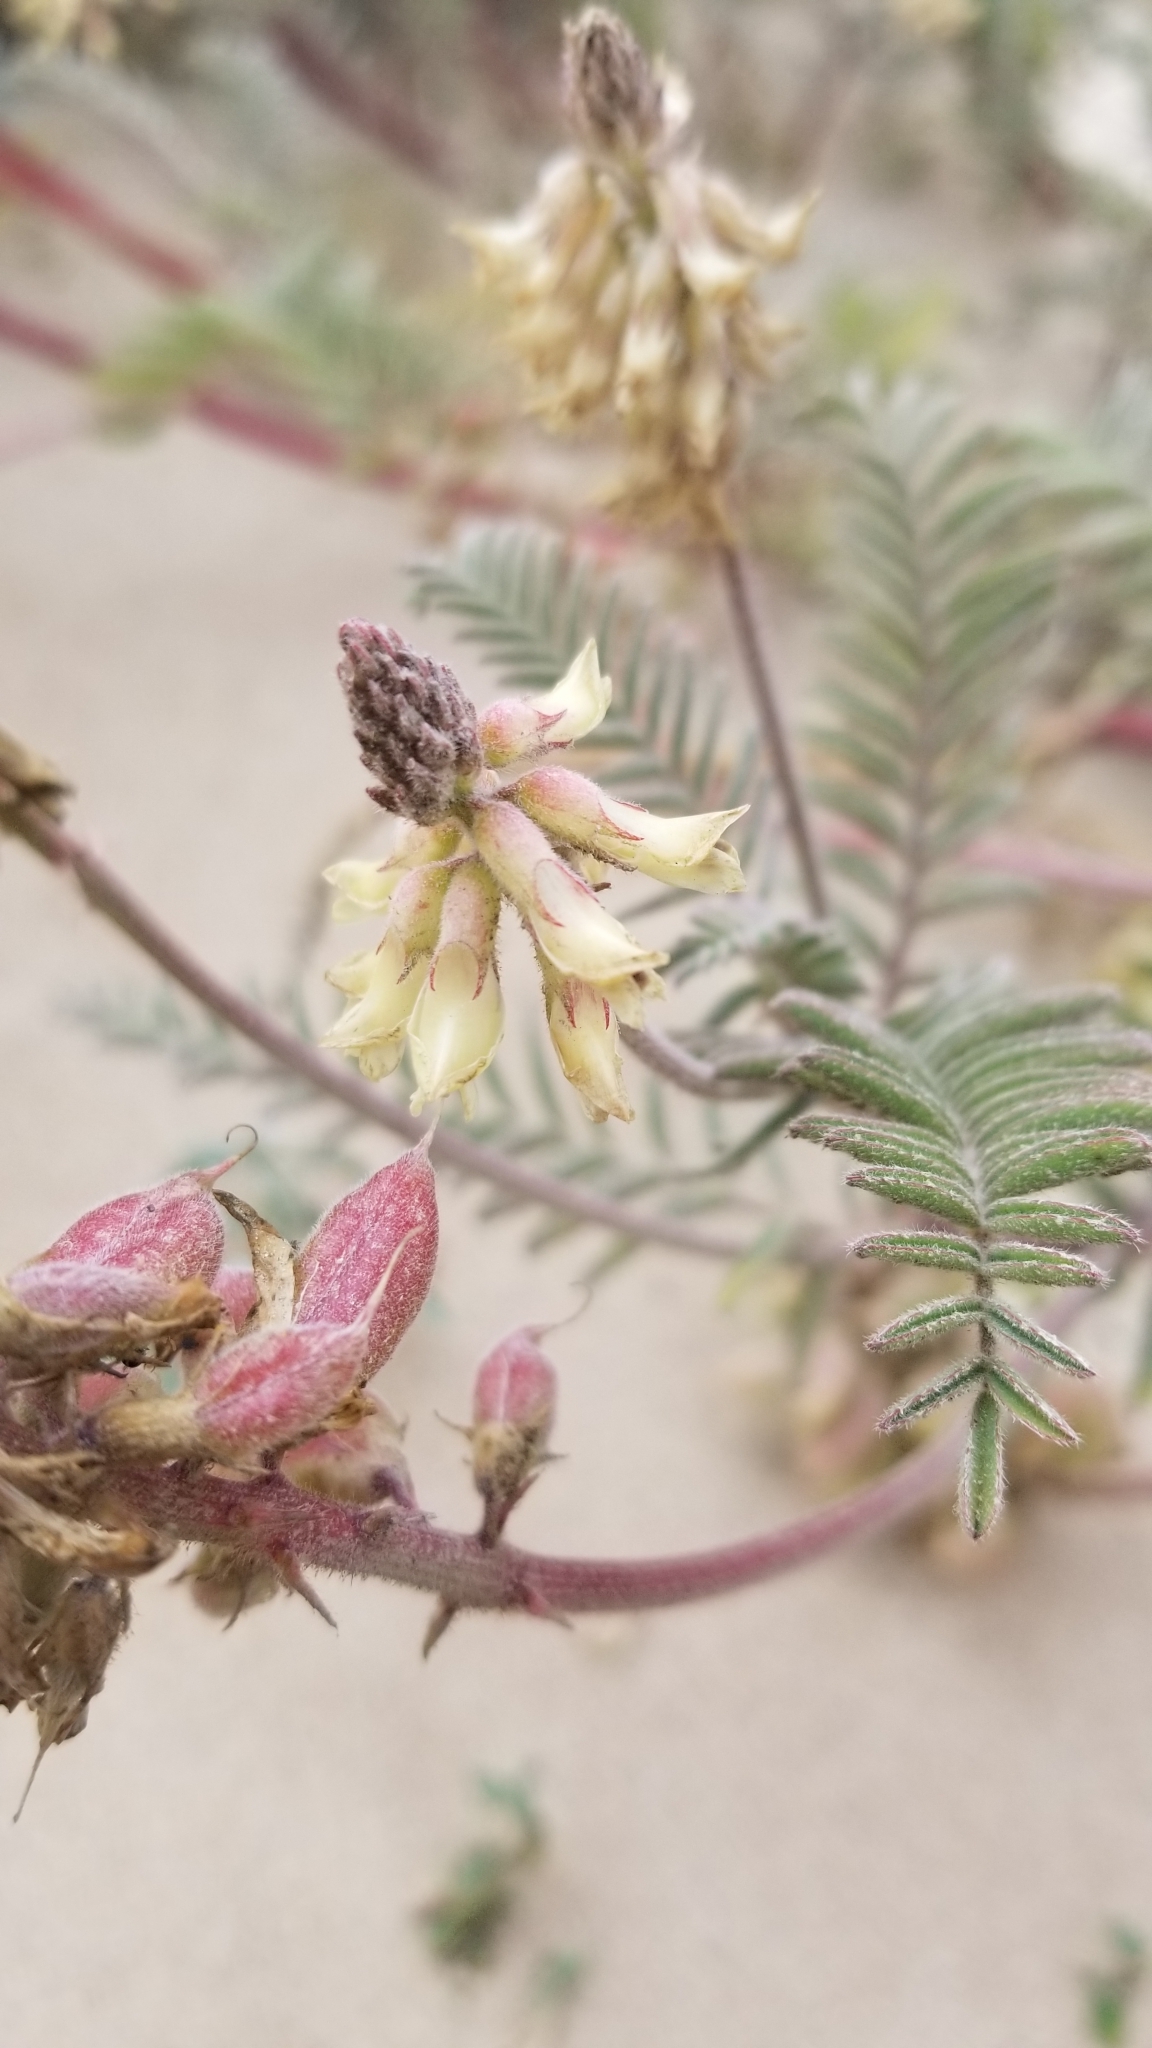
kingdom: Plantae
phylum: Tracheophyta
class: Magnoliopsida
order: Fabales
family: Fabaceae
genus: Astragalus
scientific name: Astragalus nuttallii
